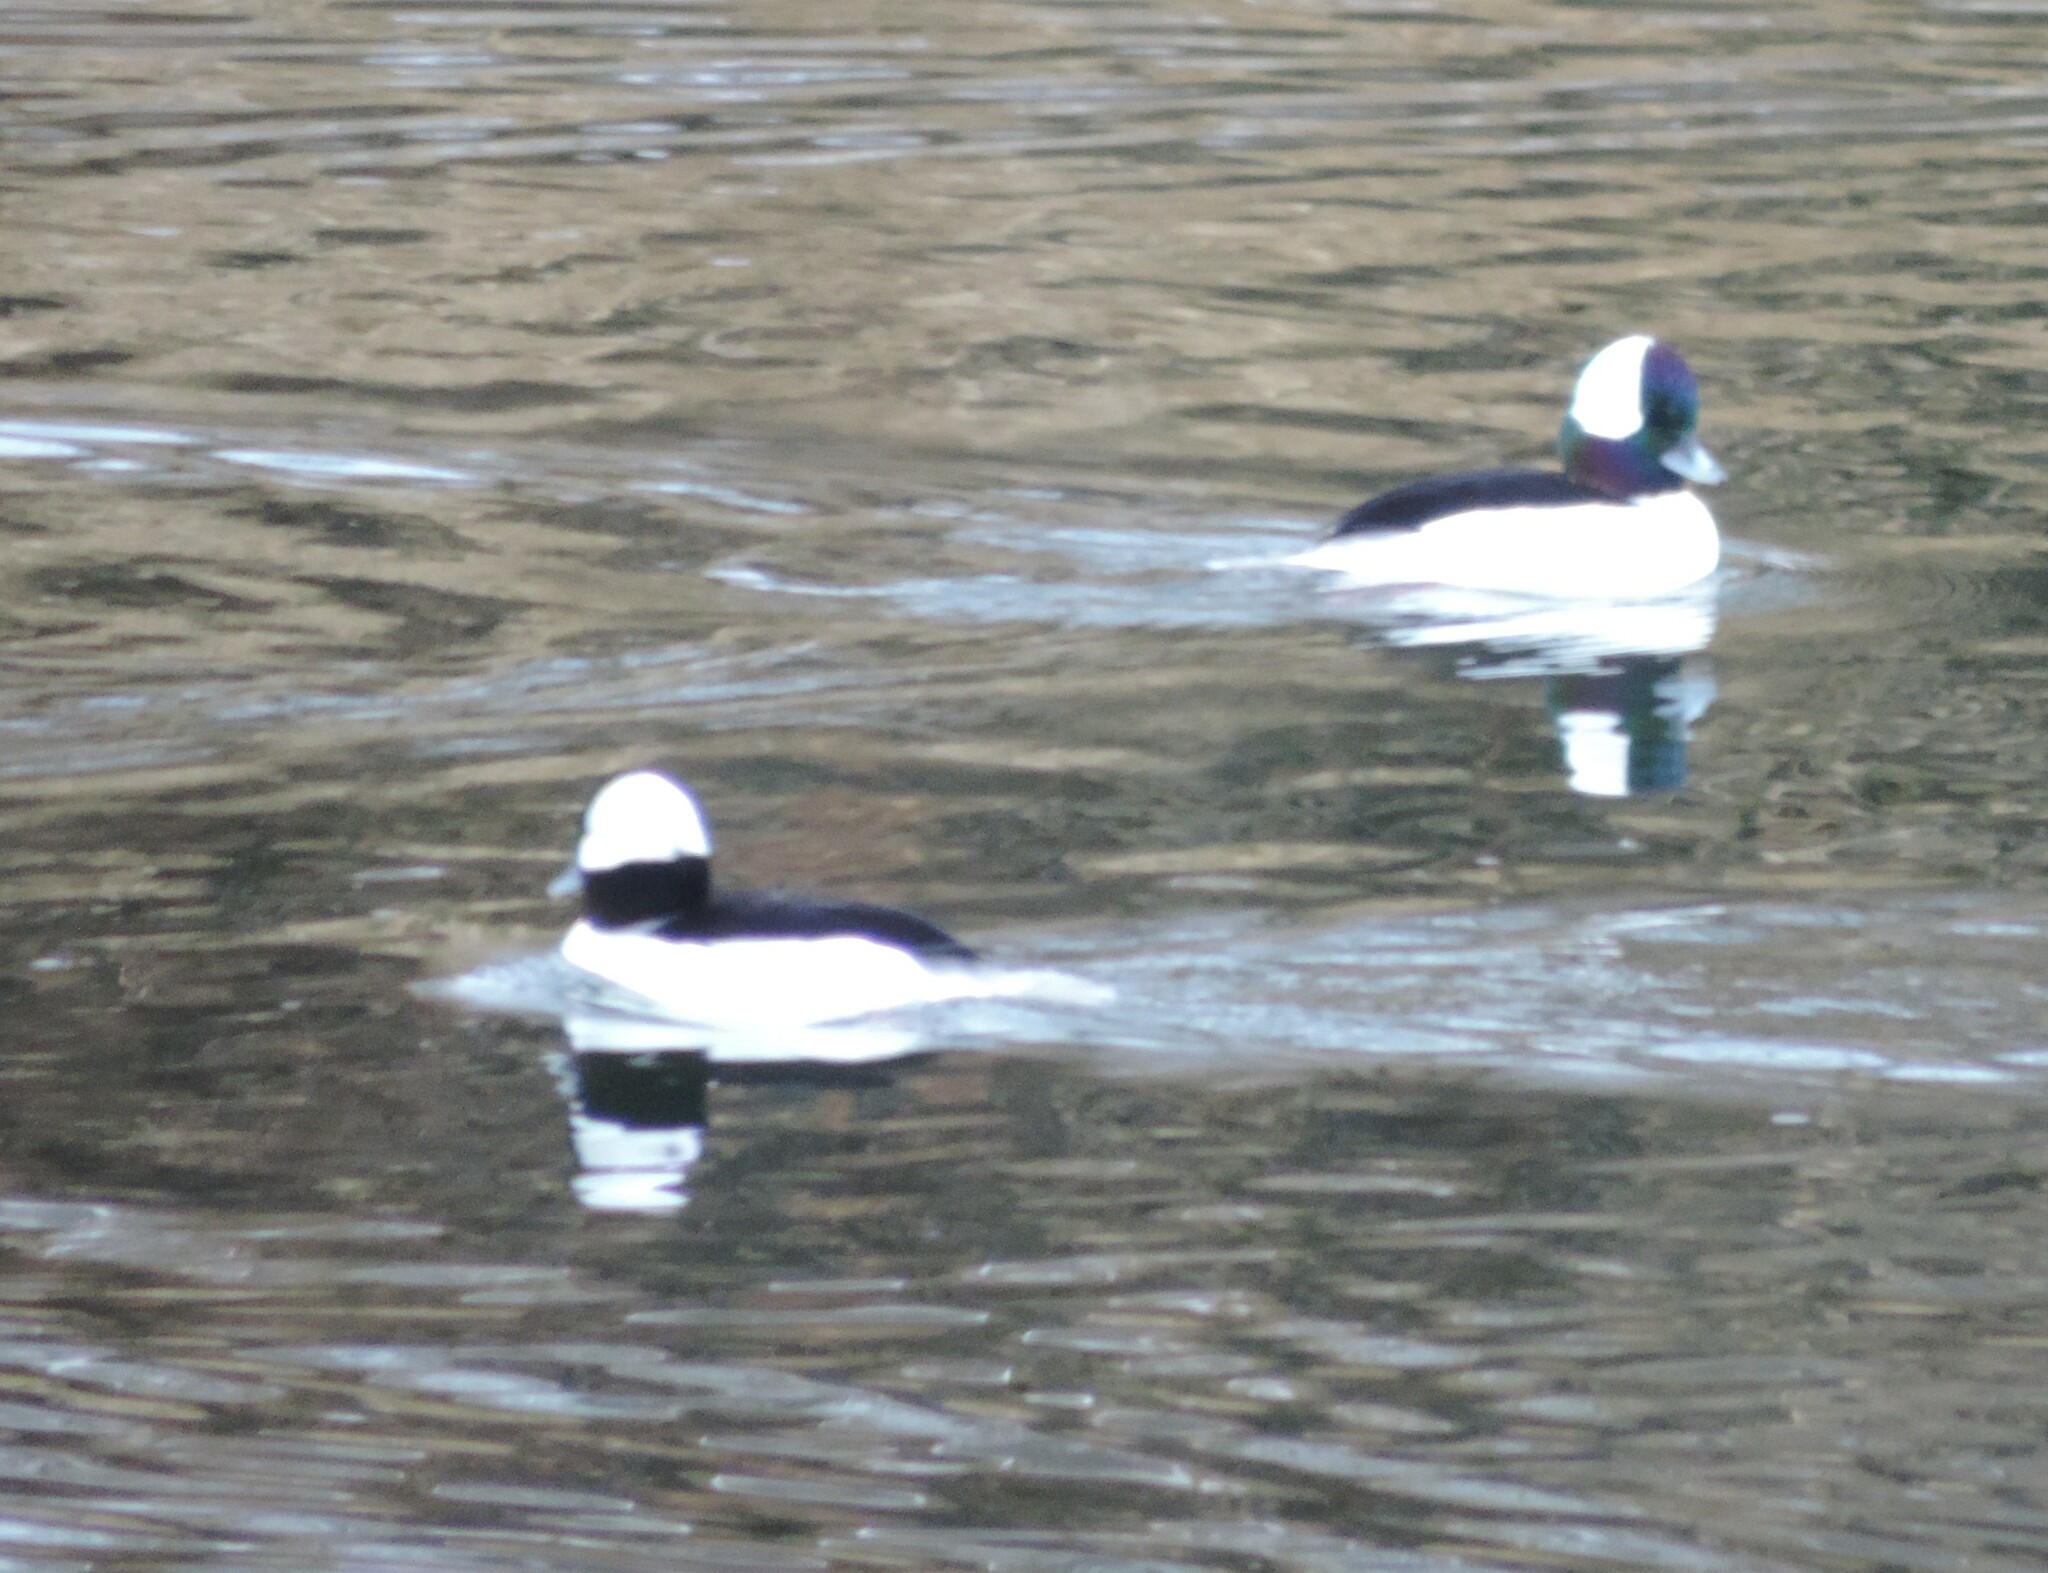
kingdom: Animalia
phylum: Chordata
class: Aves
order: Anseriformes
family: Anatidae
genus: Bucephala
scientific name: Bucephala albeola
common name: Bufflehead
